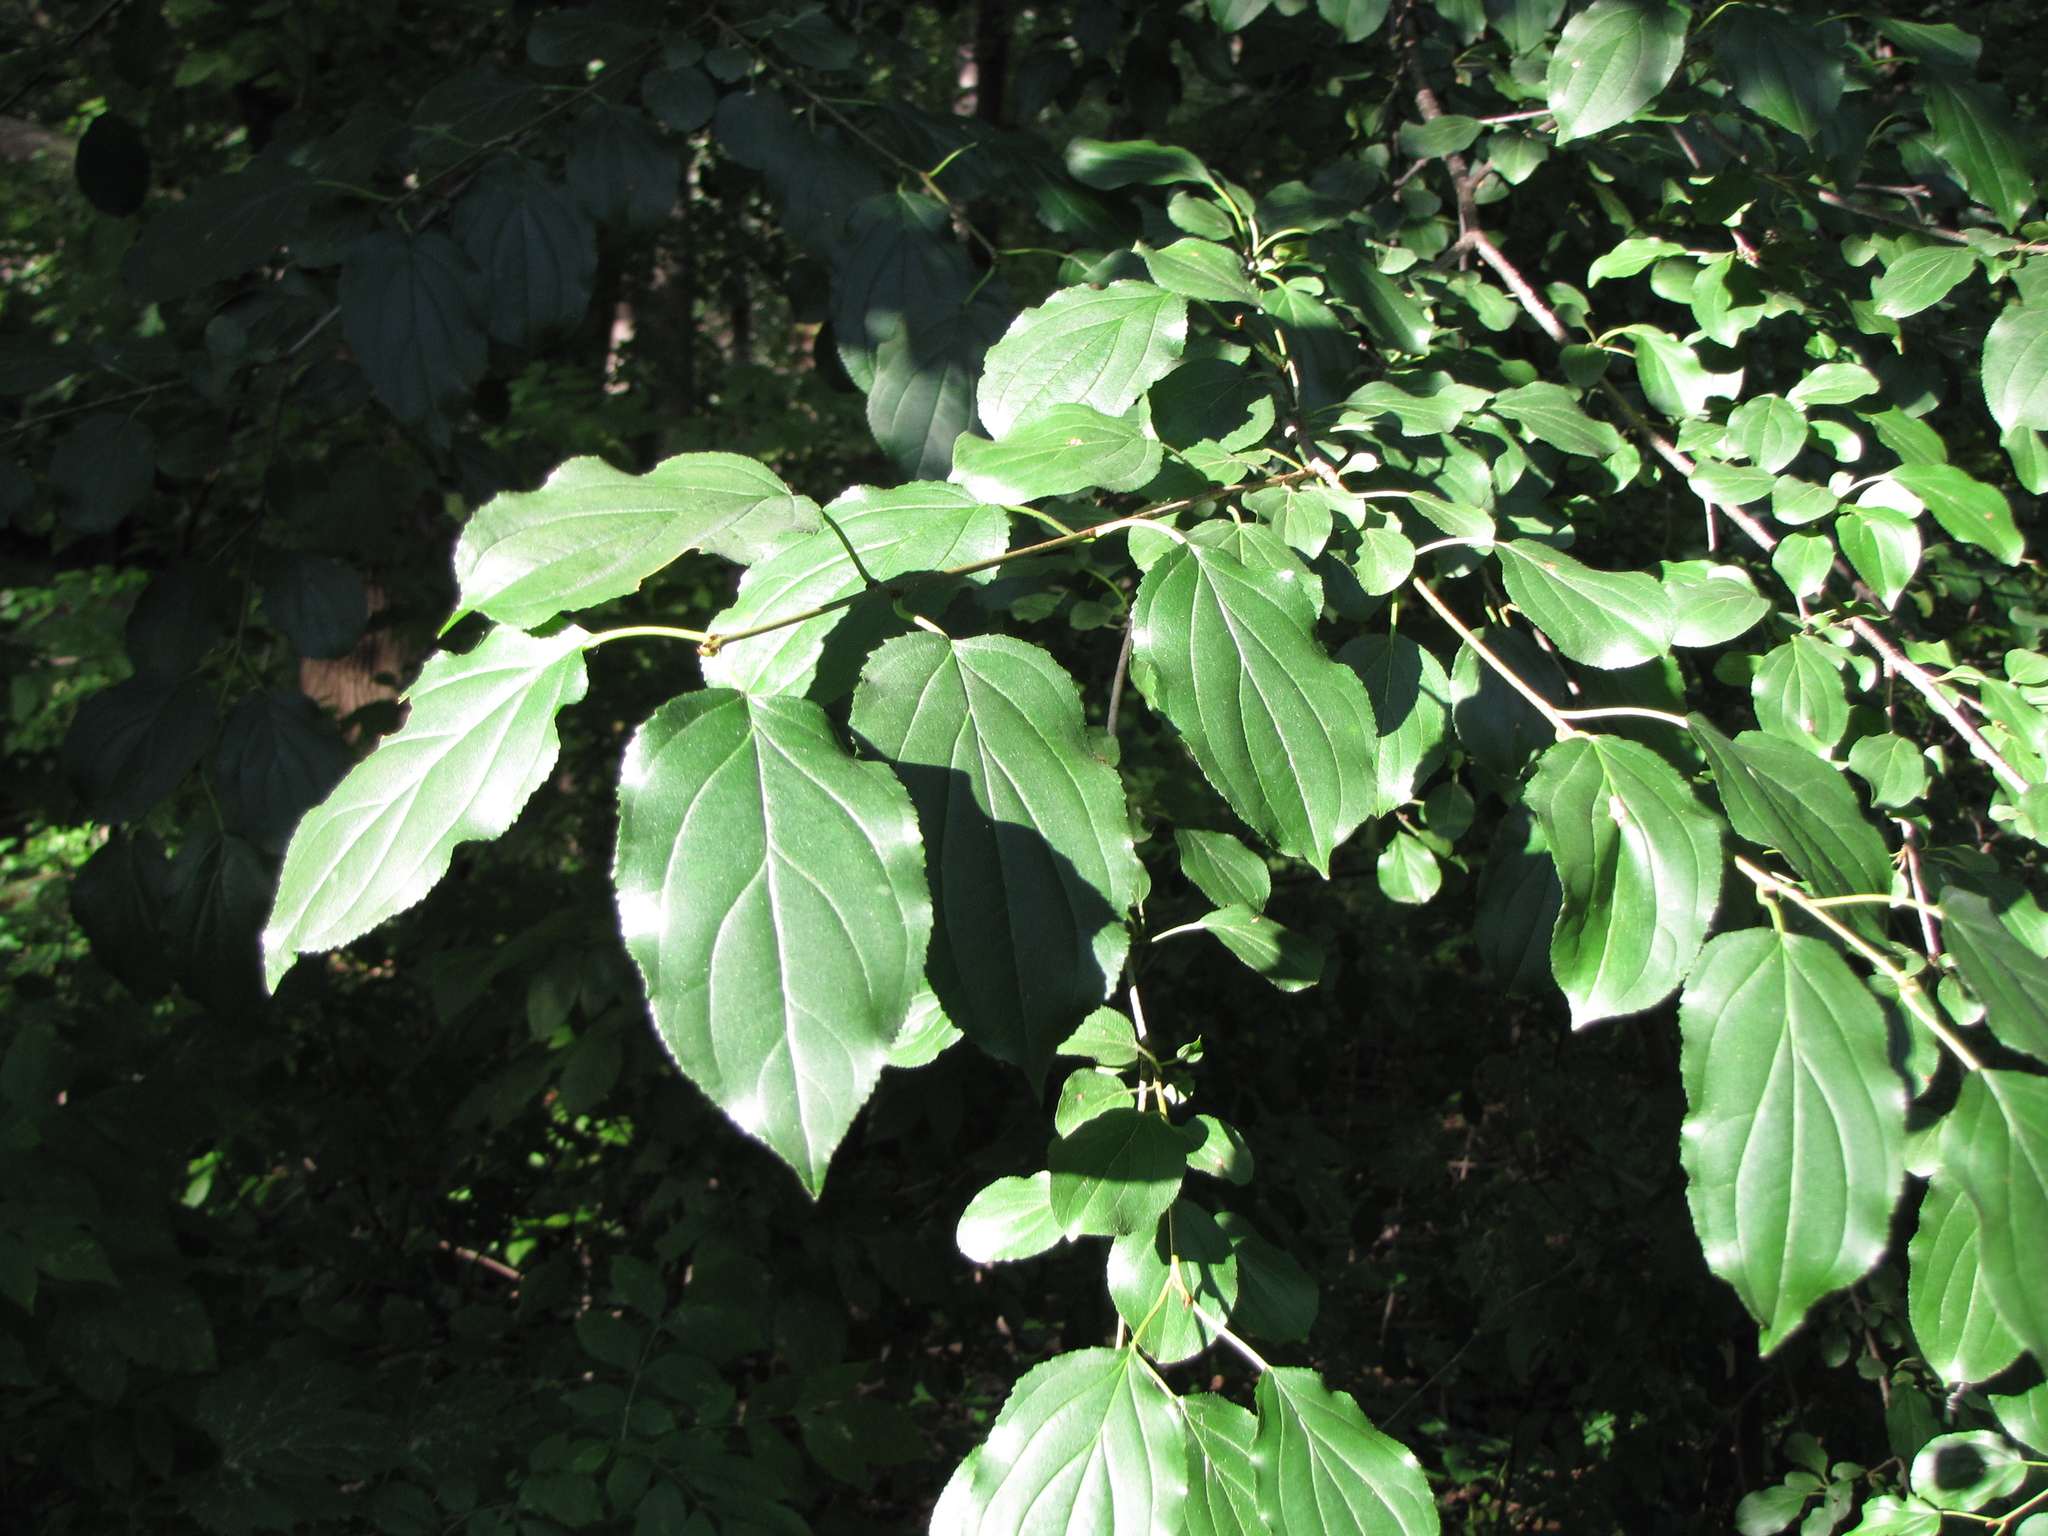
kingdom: Plantae
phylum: Tracheophyta
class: Magnoliopsida
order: Rosales
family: Rhamnaceae
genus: Rhamnus
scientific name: Rhamnus cathartica
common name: Common buckthorn
